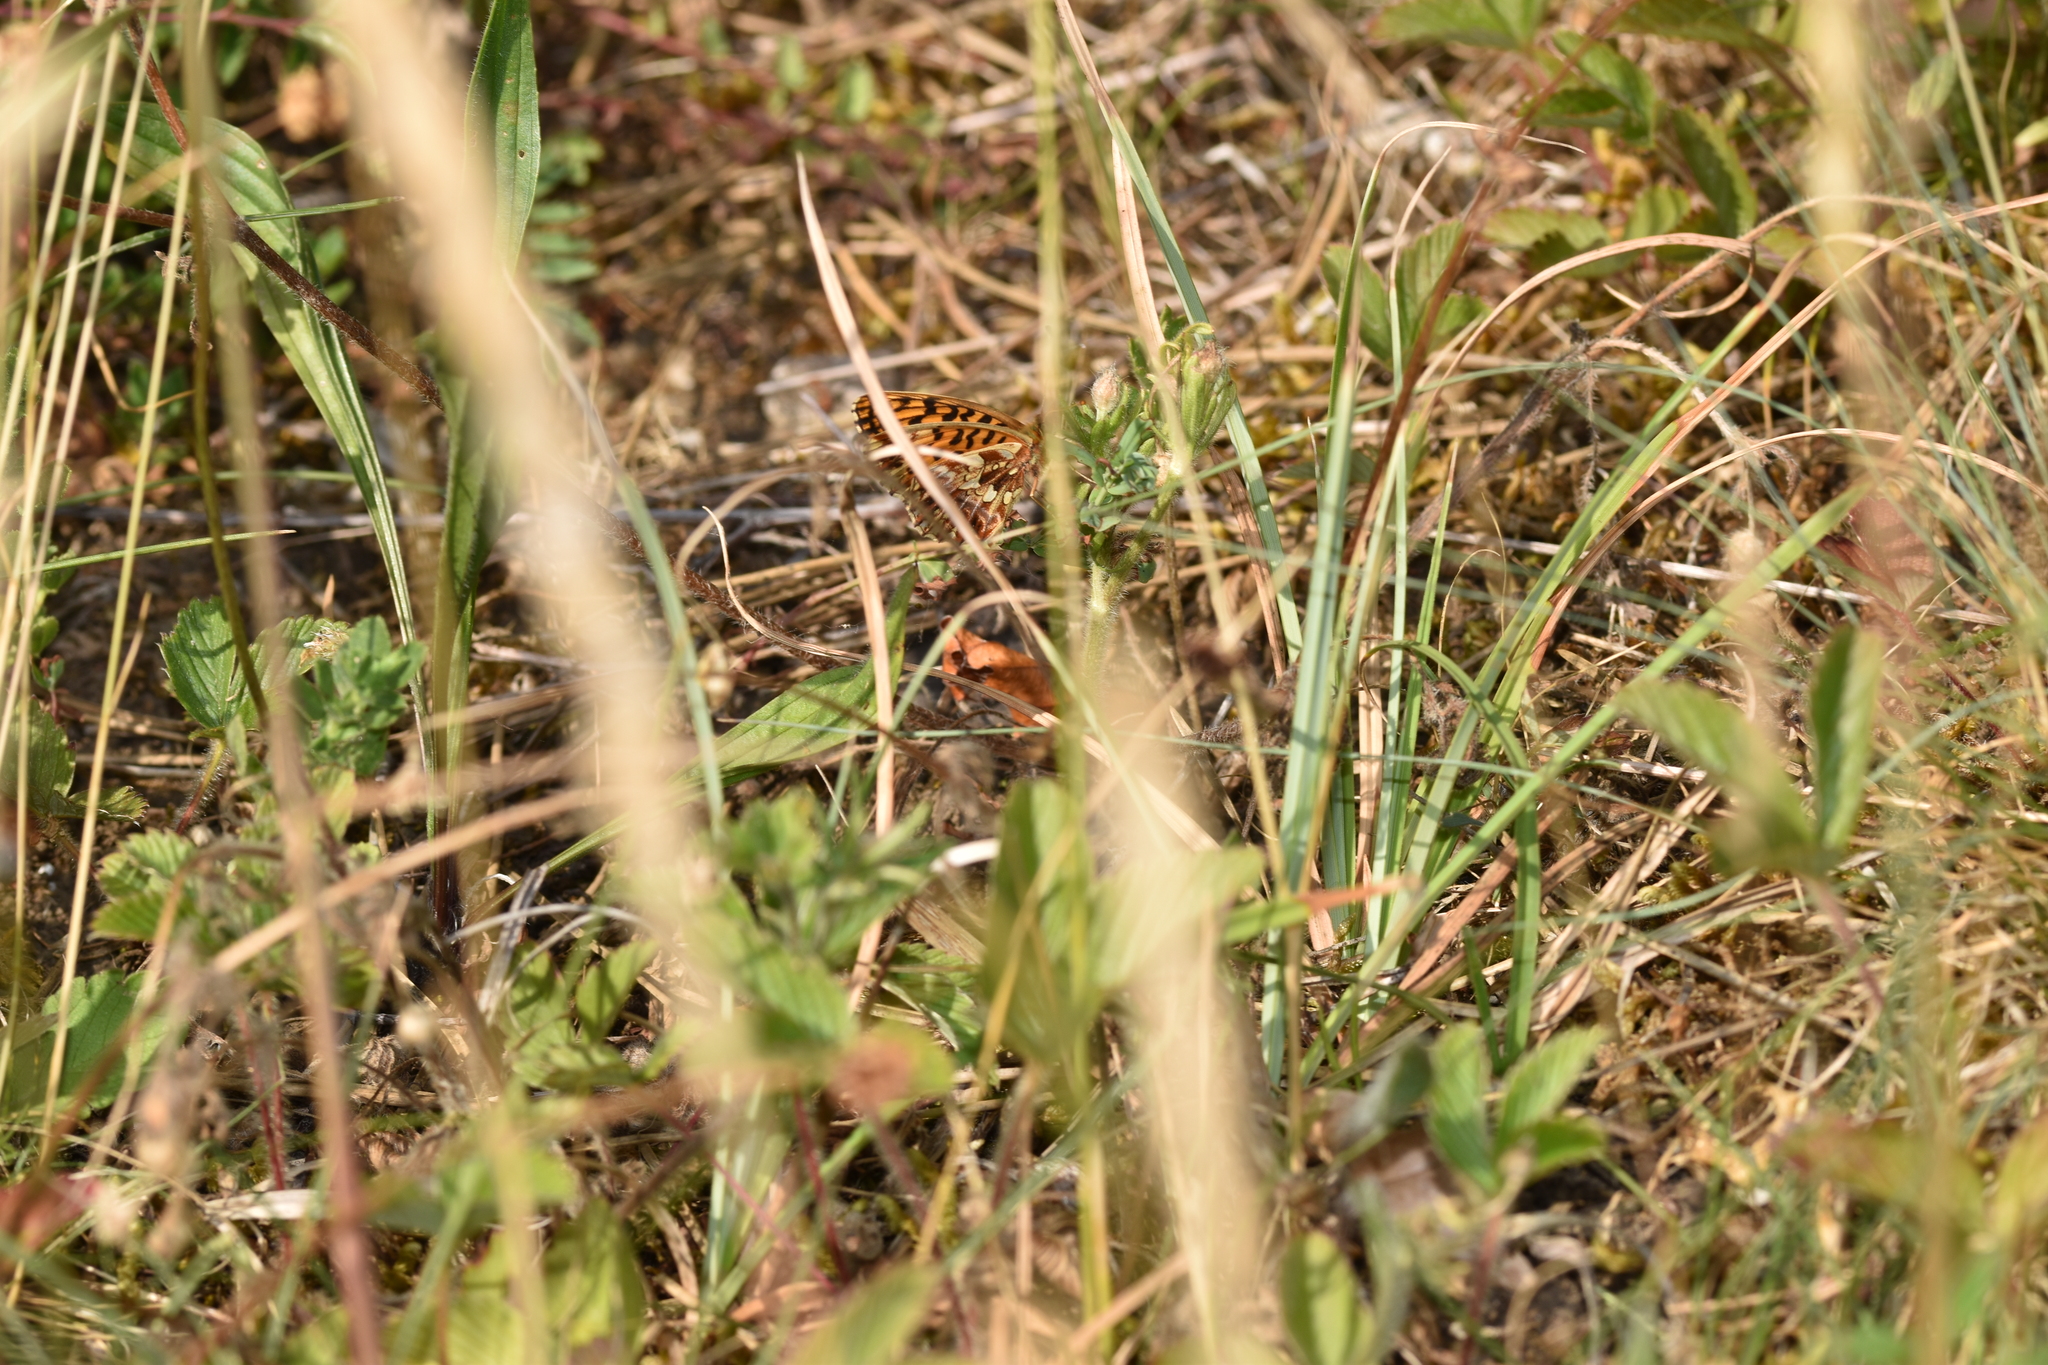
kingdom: Animalia
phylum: Arthropoda
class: Insecta
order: Lepidoptera
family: Nymphalidae
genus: Boloria
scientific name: Boloria dia
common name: Weaver's fritillary
